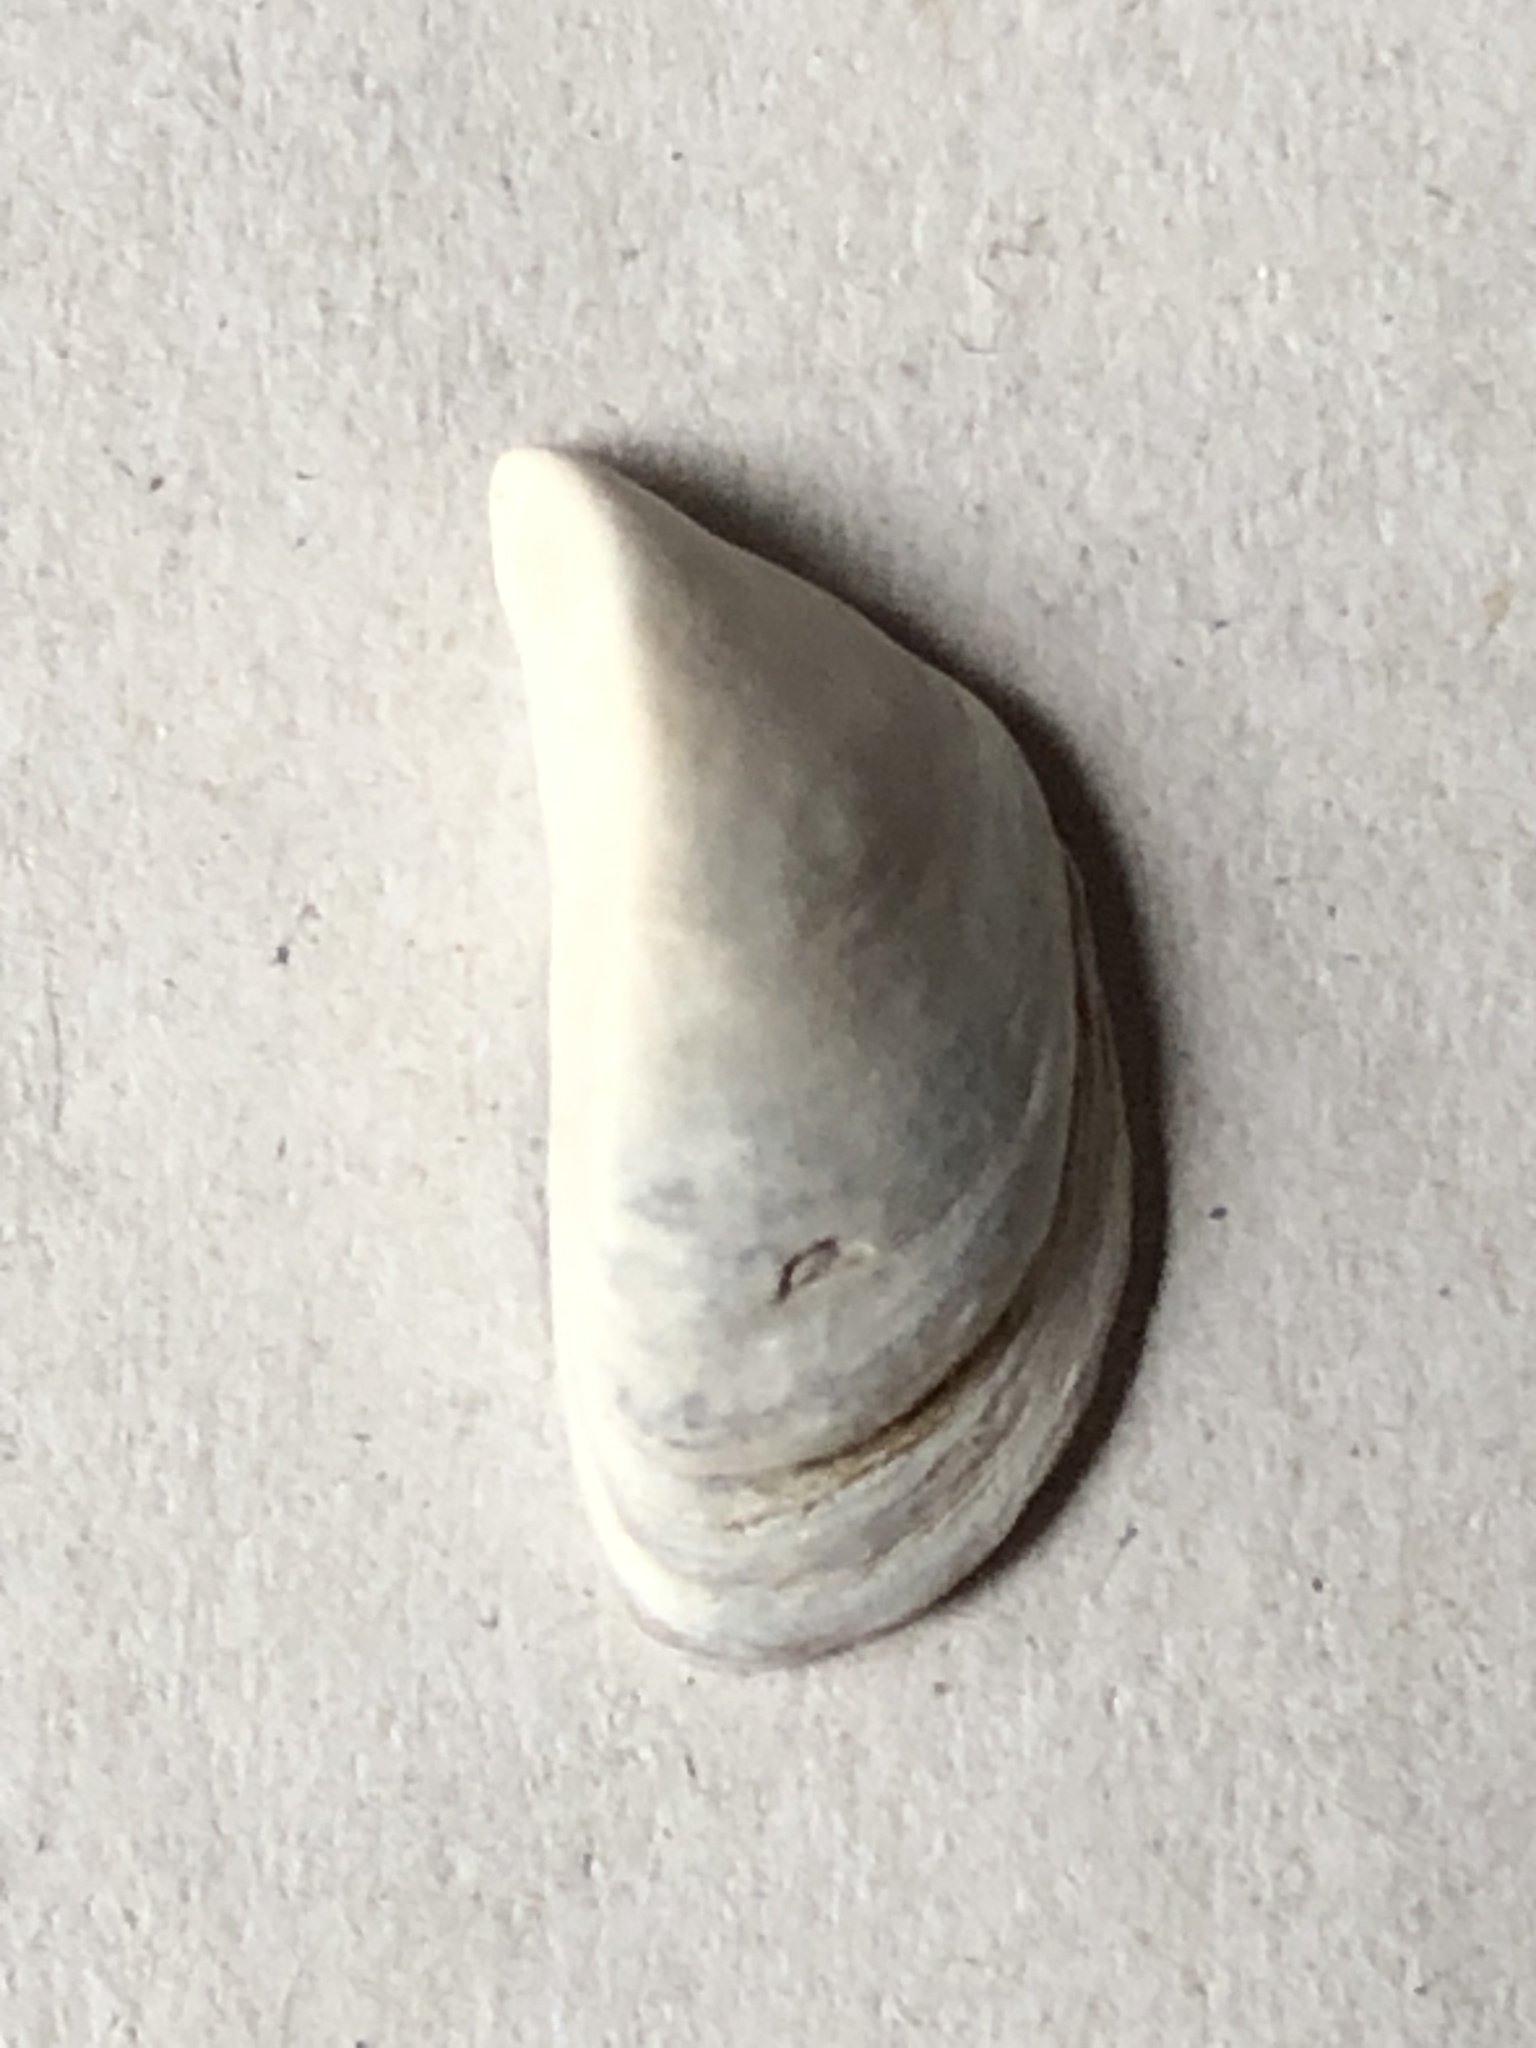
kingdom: Animalia
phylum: Mollusca
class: Bivalvia
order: Myida
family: Dreissenidae
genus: Dreissena
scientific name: Dreissena polymorpha
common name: Zebra mussel
